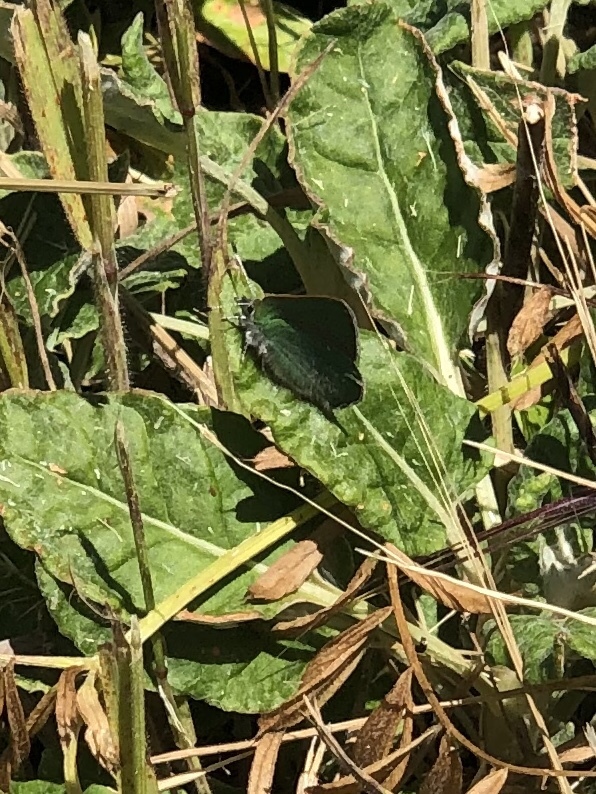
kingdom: Animalia
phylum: Arthropoda
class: Insecta
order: Lepidoptera
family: Lycaenidae
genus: Callophrys
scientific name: Callophrys viridis
